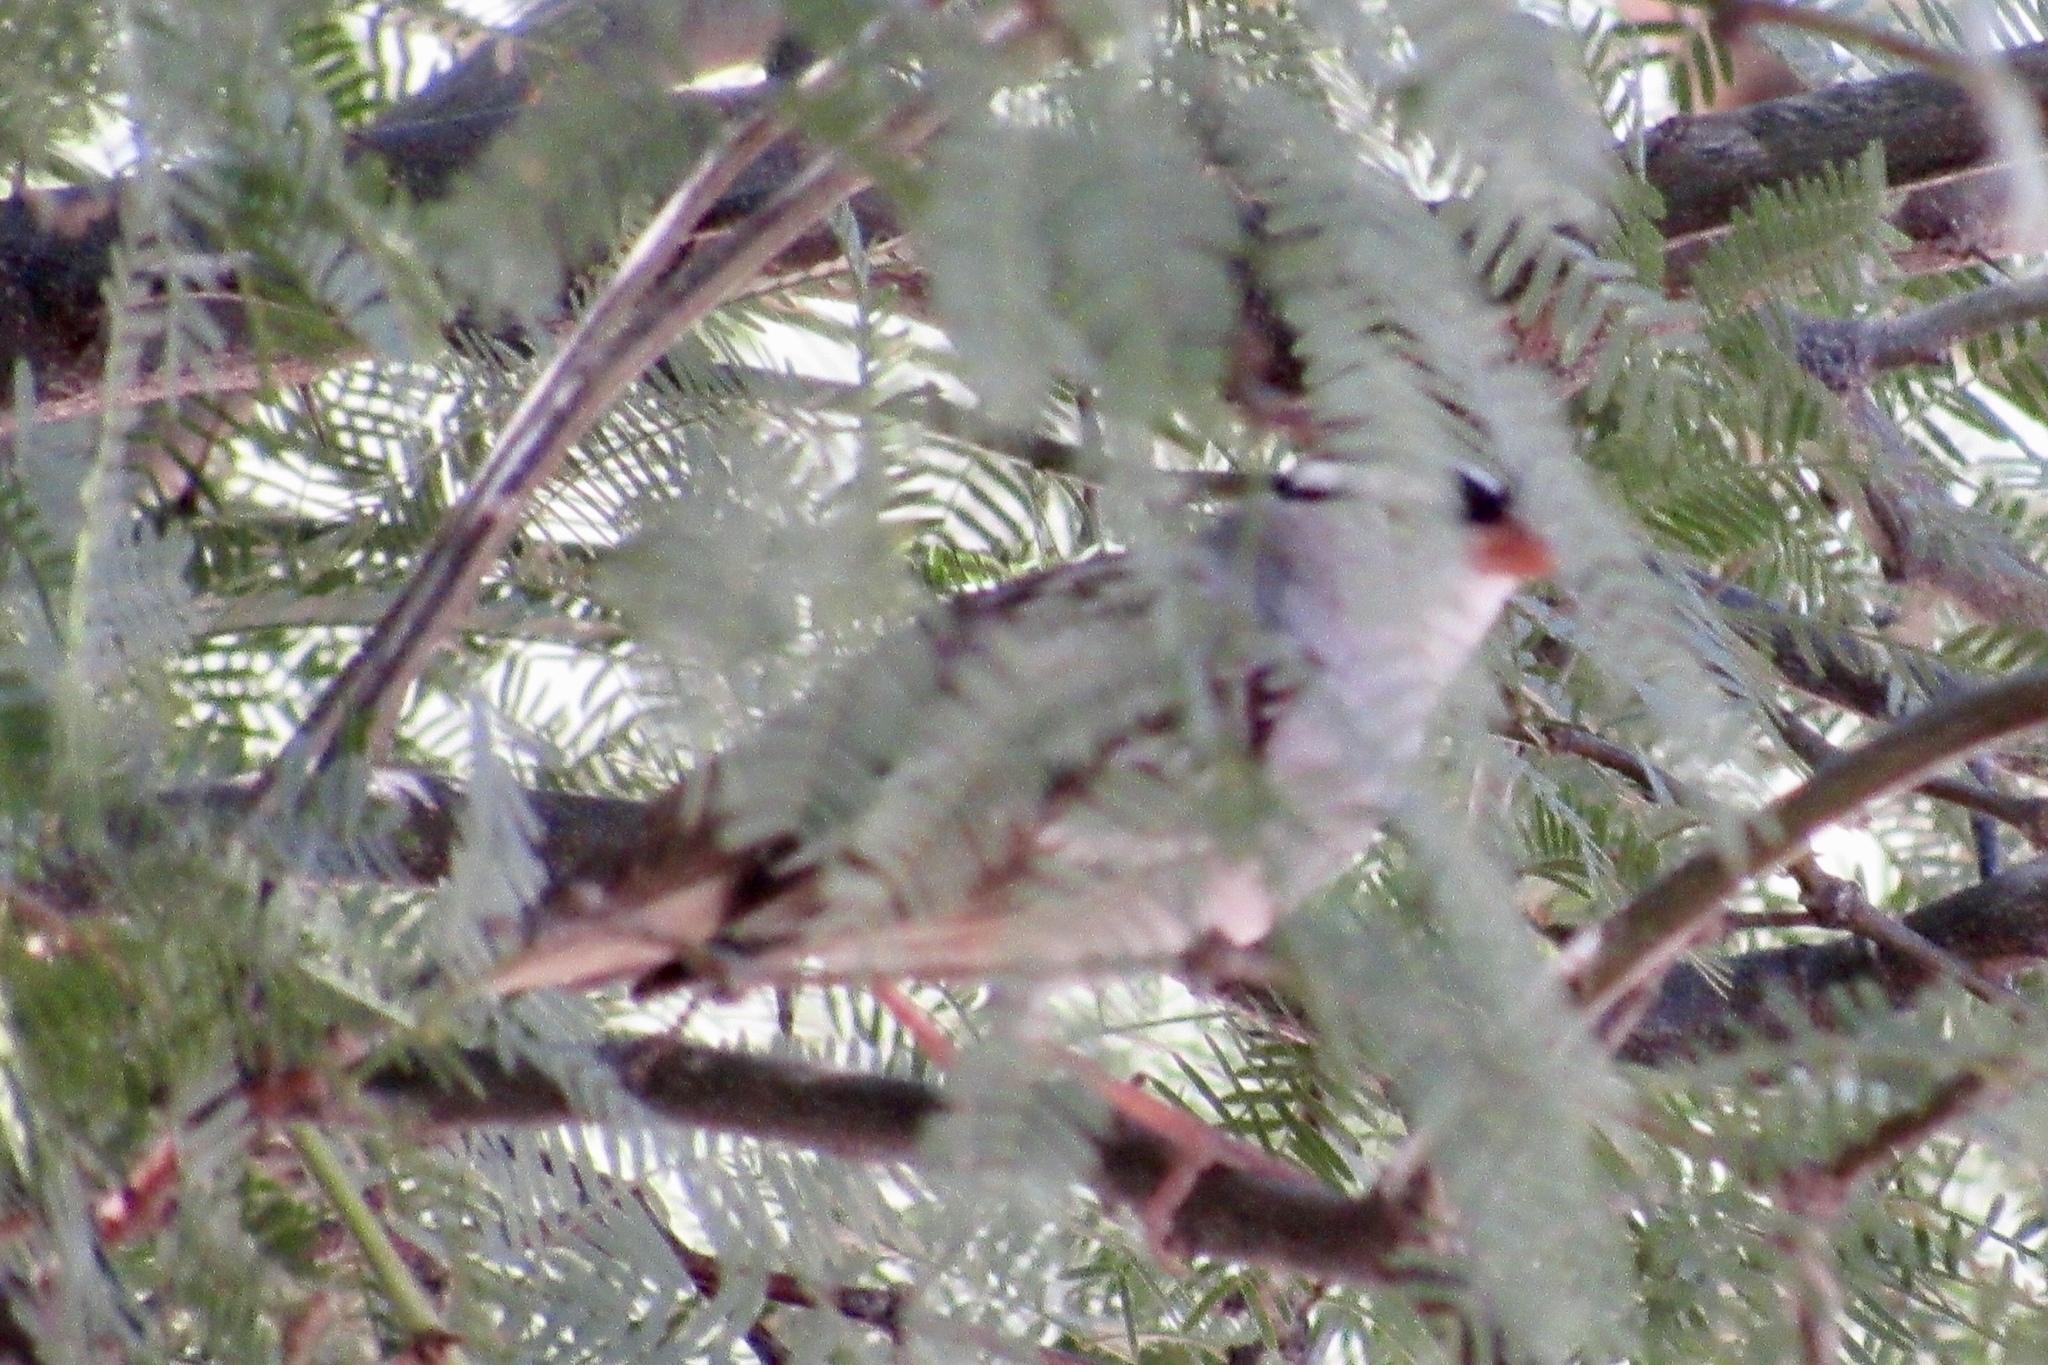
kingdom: Animalia
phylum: Chordata
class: Aves
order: Passeriformes
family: Passerellidae
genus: Zonotrichia
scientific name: Zonotrichia leucophrys
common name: White-crowned sparrow
